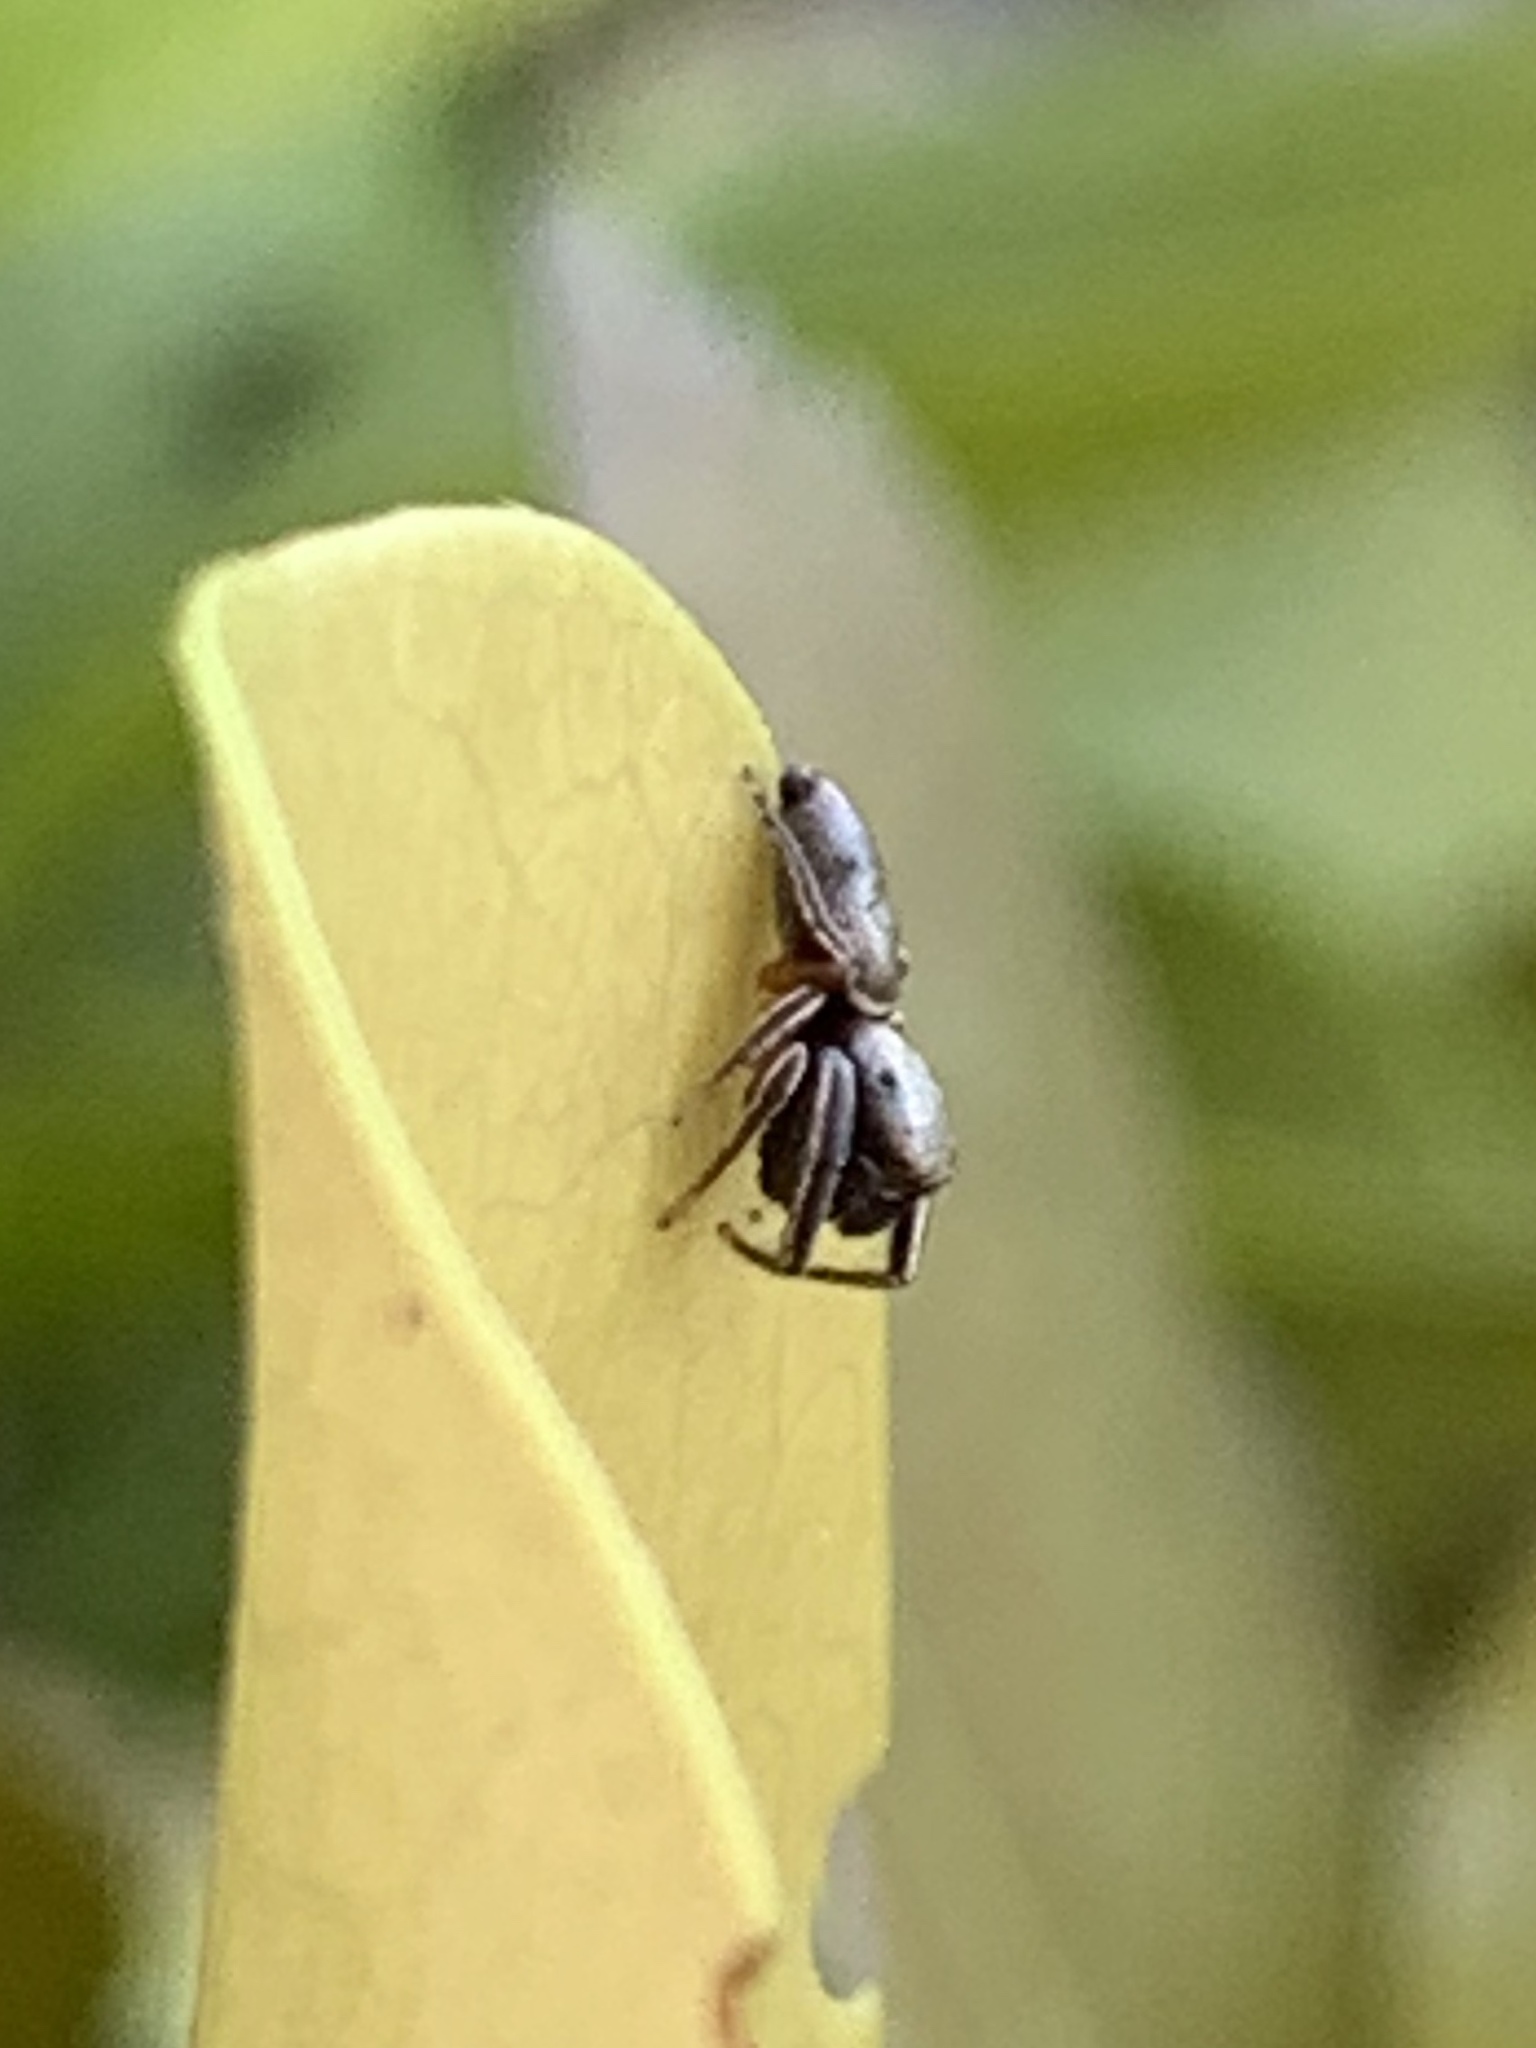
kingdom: Animalia
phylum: Arthropoda
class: Arachnida
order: Araneae
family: Salticidae
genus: Beata
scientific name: Beata wickhami
